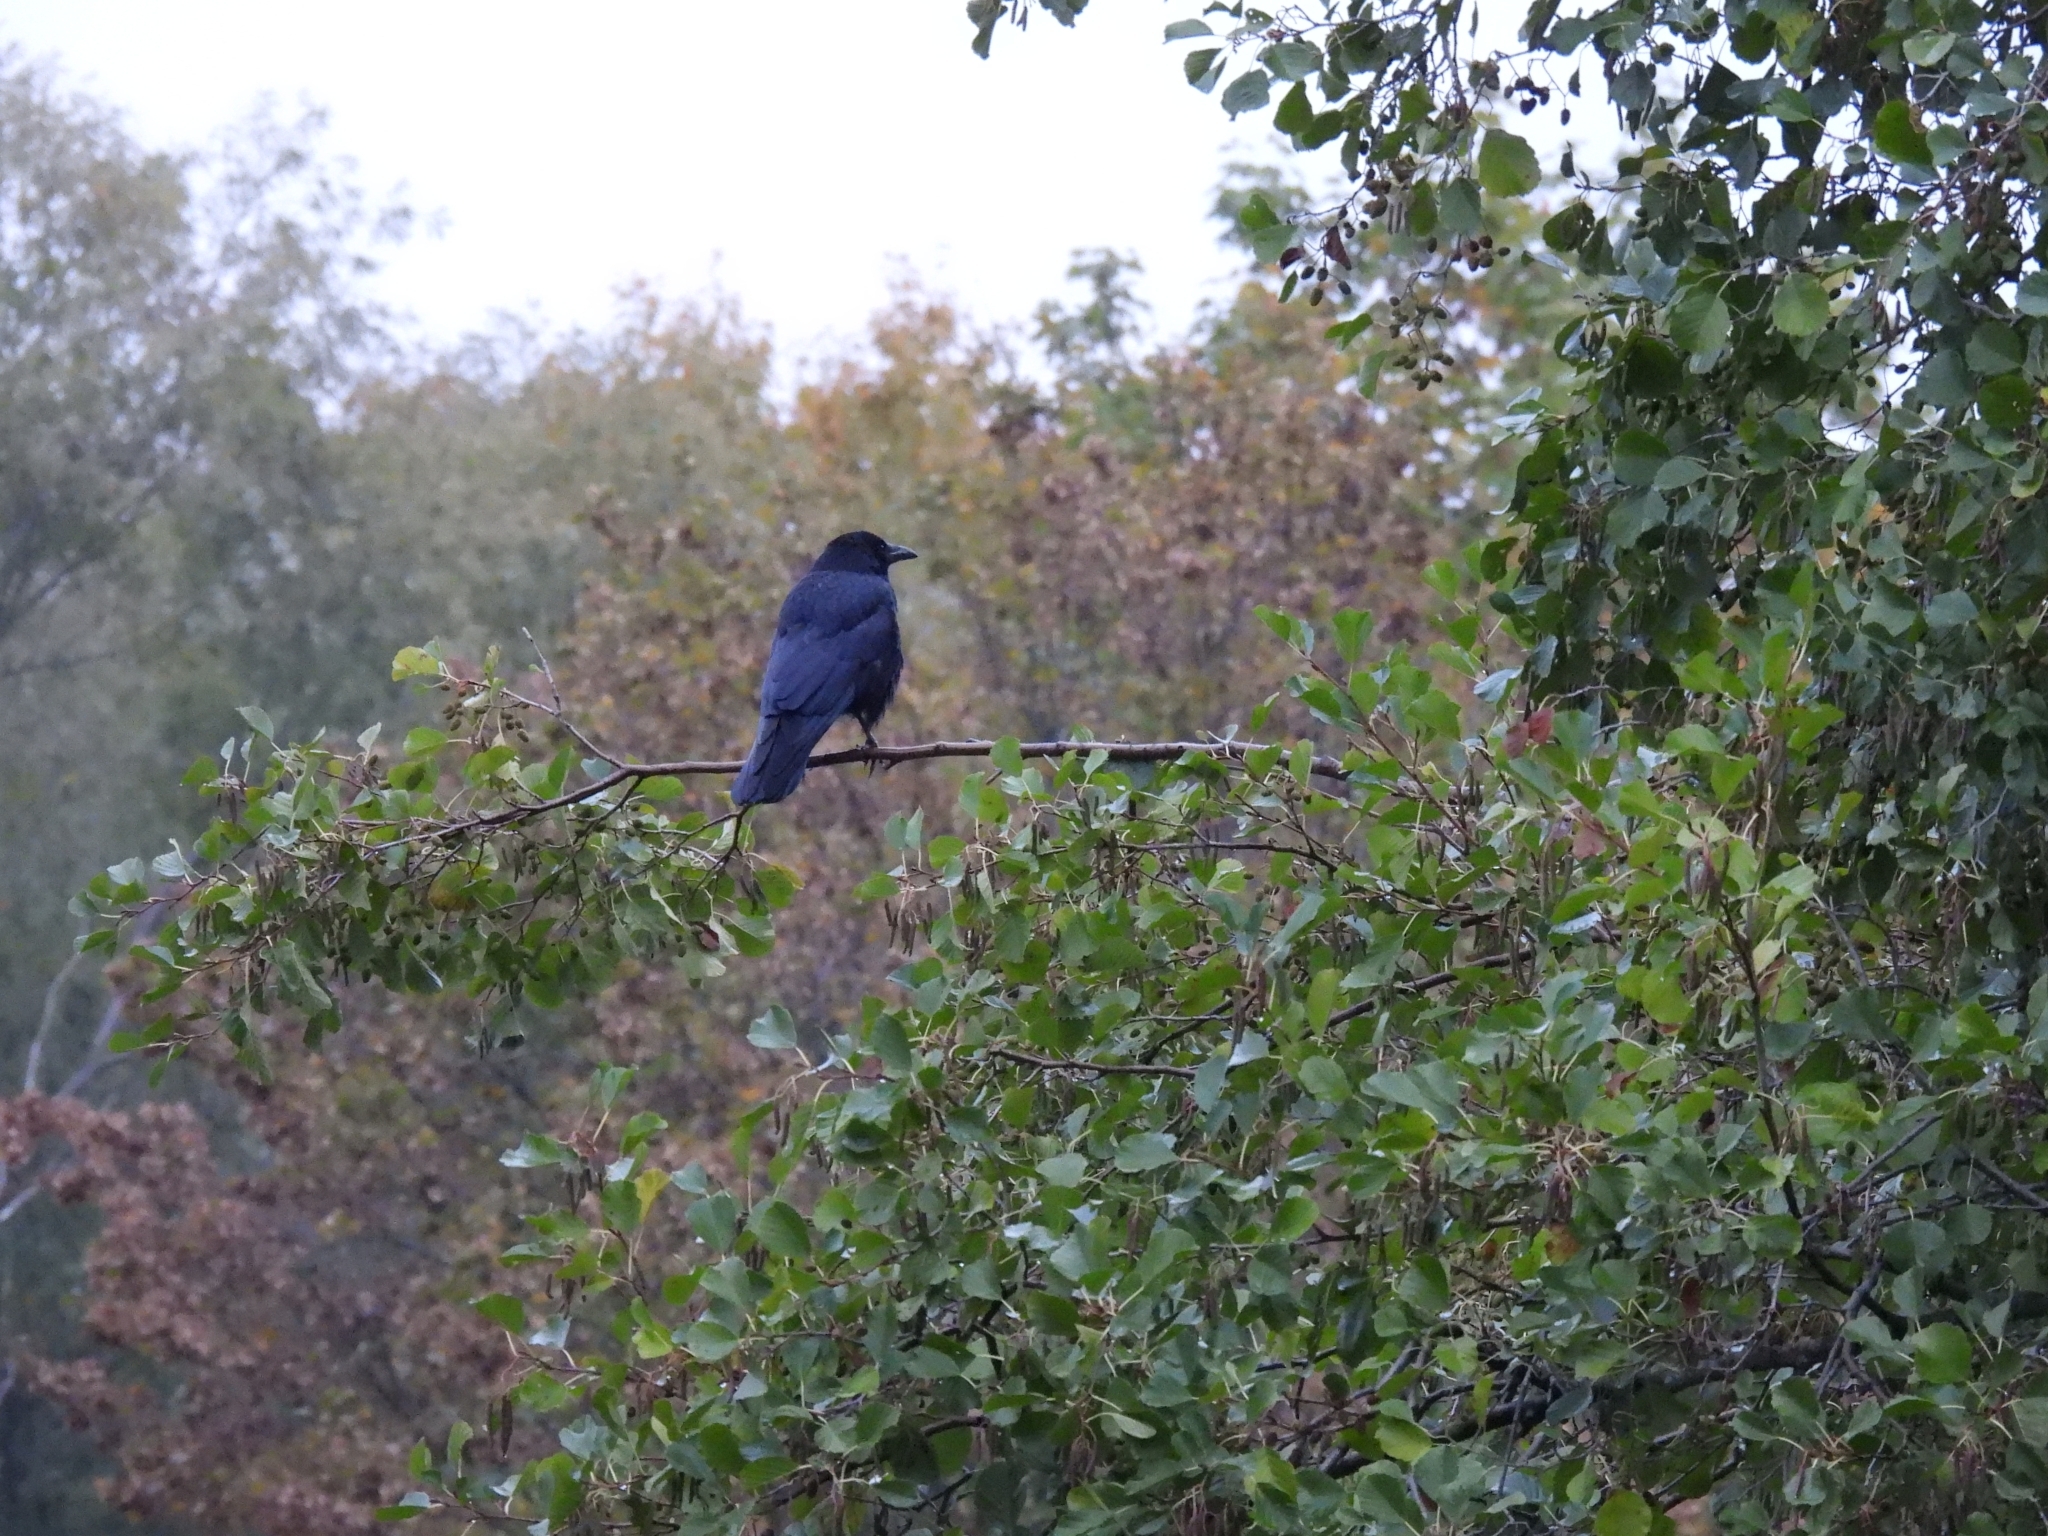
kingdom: Animalia
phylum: Chordata
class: Aves
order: Passeriformes
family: Corvidae
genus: Corvus
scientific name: Corvus corone
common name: Carrion crow
